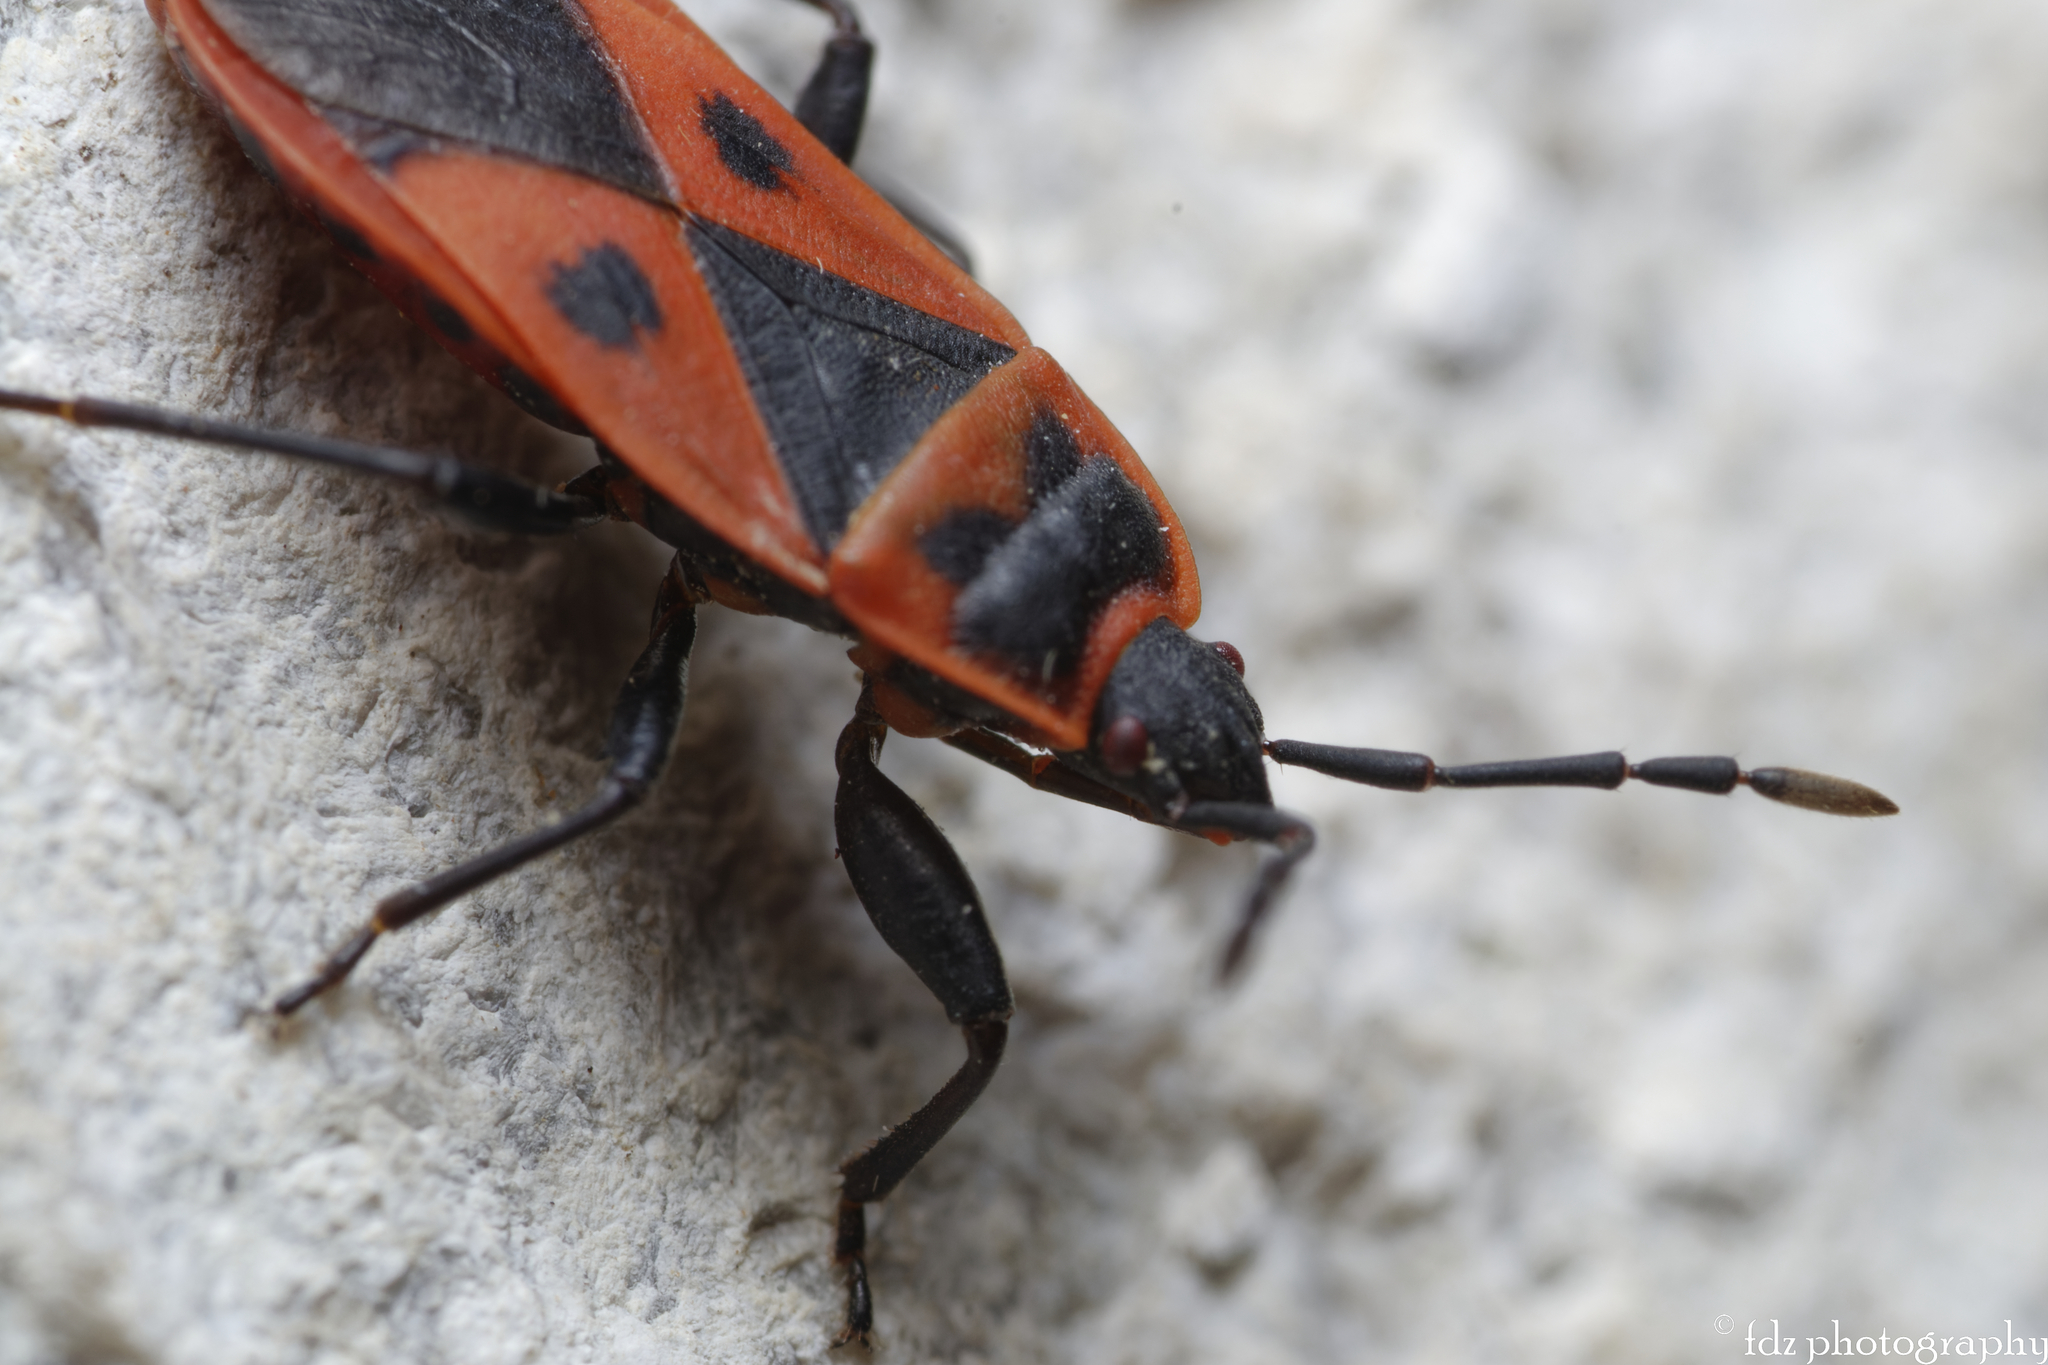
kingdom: Animalia
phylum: Arthropoda
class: Insecta
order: Hemiptera
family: Pyrrhocoridae
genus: Scantius
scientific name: Scantius aegyptius
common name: Red bug
